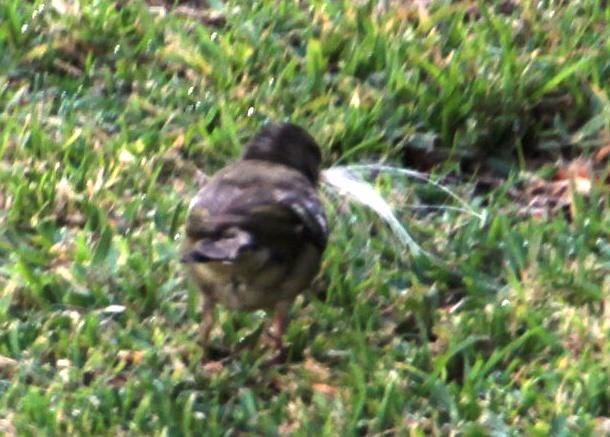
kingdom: Animalia
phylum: Chordata
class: Aves
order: Passeriformes
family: Fringillidae
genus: Fringilla
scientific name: Fringilla coelebs
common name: Common chaffinch
